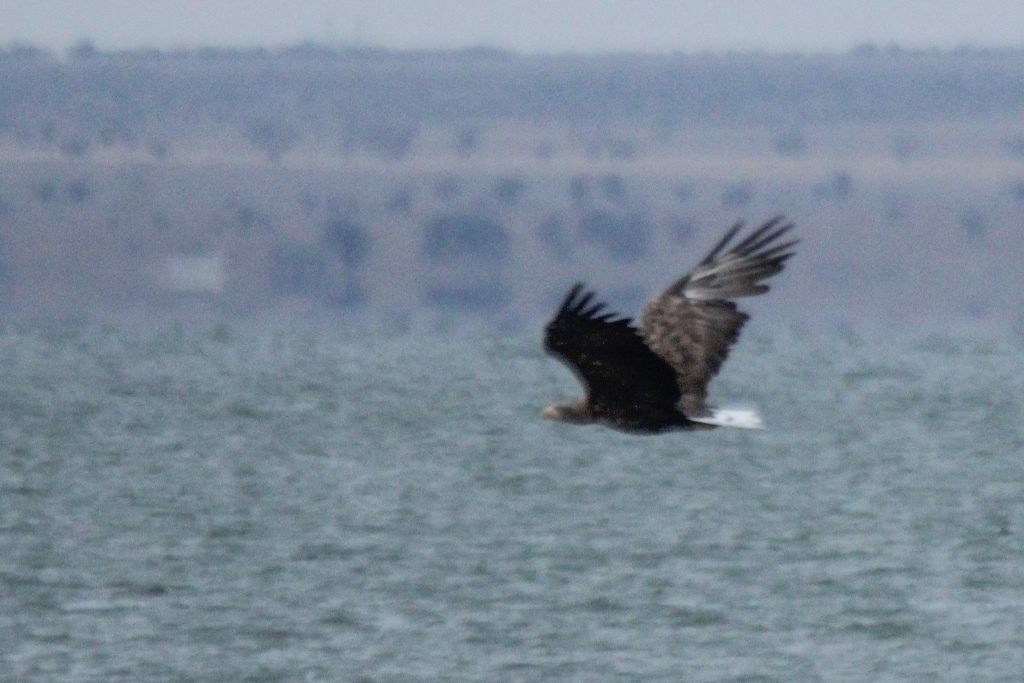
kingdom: Animalia
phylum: Chordata
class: Aves
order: Accipitriformes
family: Accipitridae
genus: Haliaeetus
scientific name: Haliaeetus albicilla
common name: White-tailed eagle
